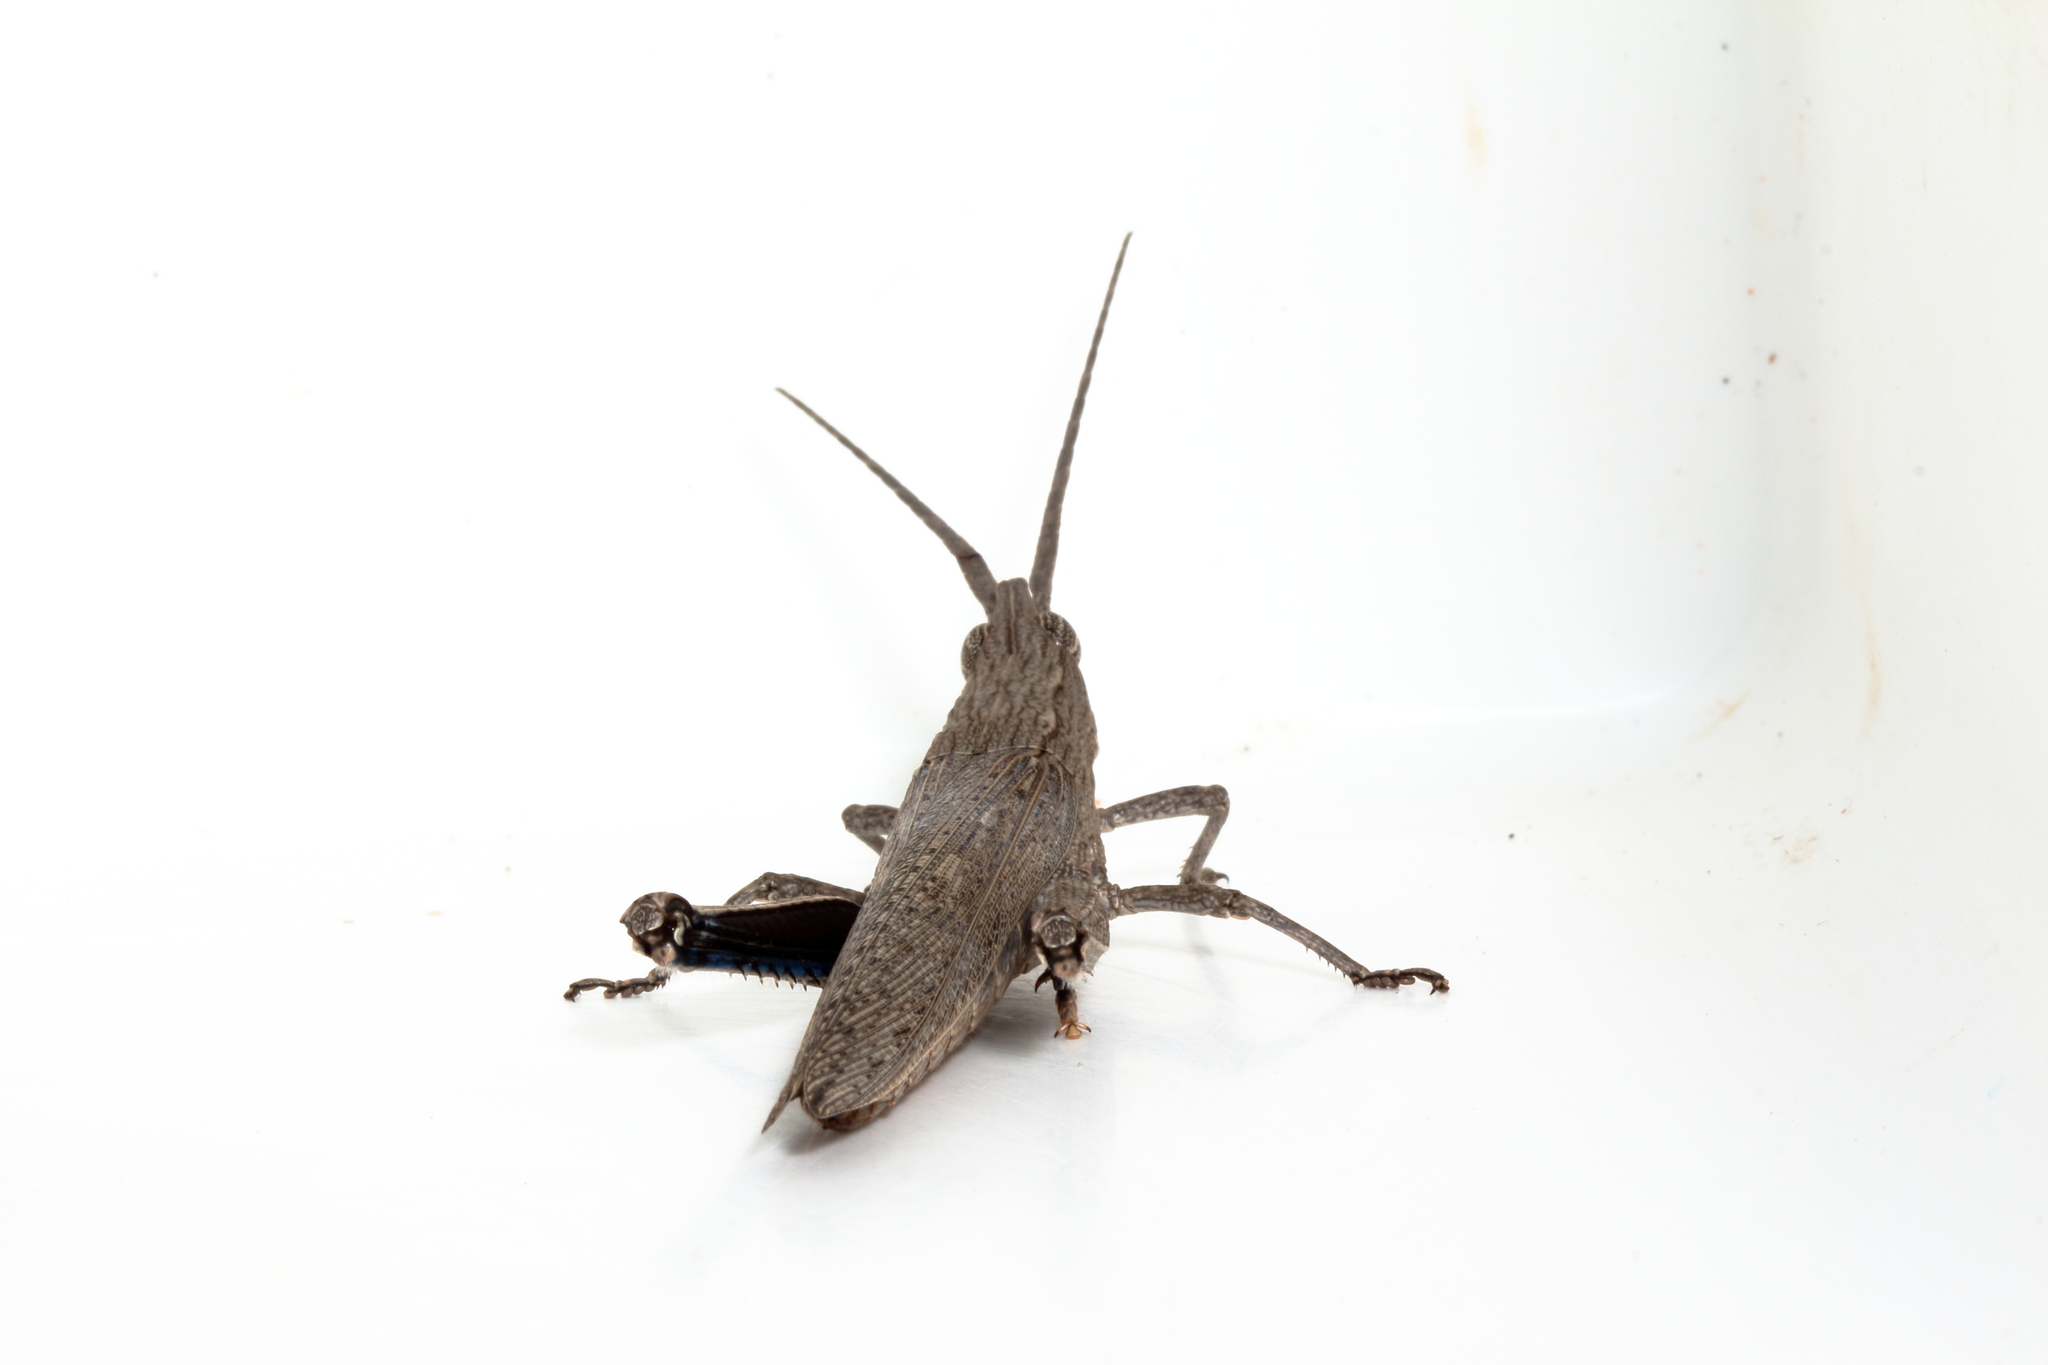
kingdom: Animalia
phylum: Arthropoda
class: Insecta
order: Orthoptera
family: Acrididae
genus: Coryphistes
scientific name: Coryphistes ruricola
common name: Bark-mimicking grasshopper
